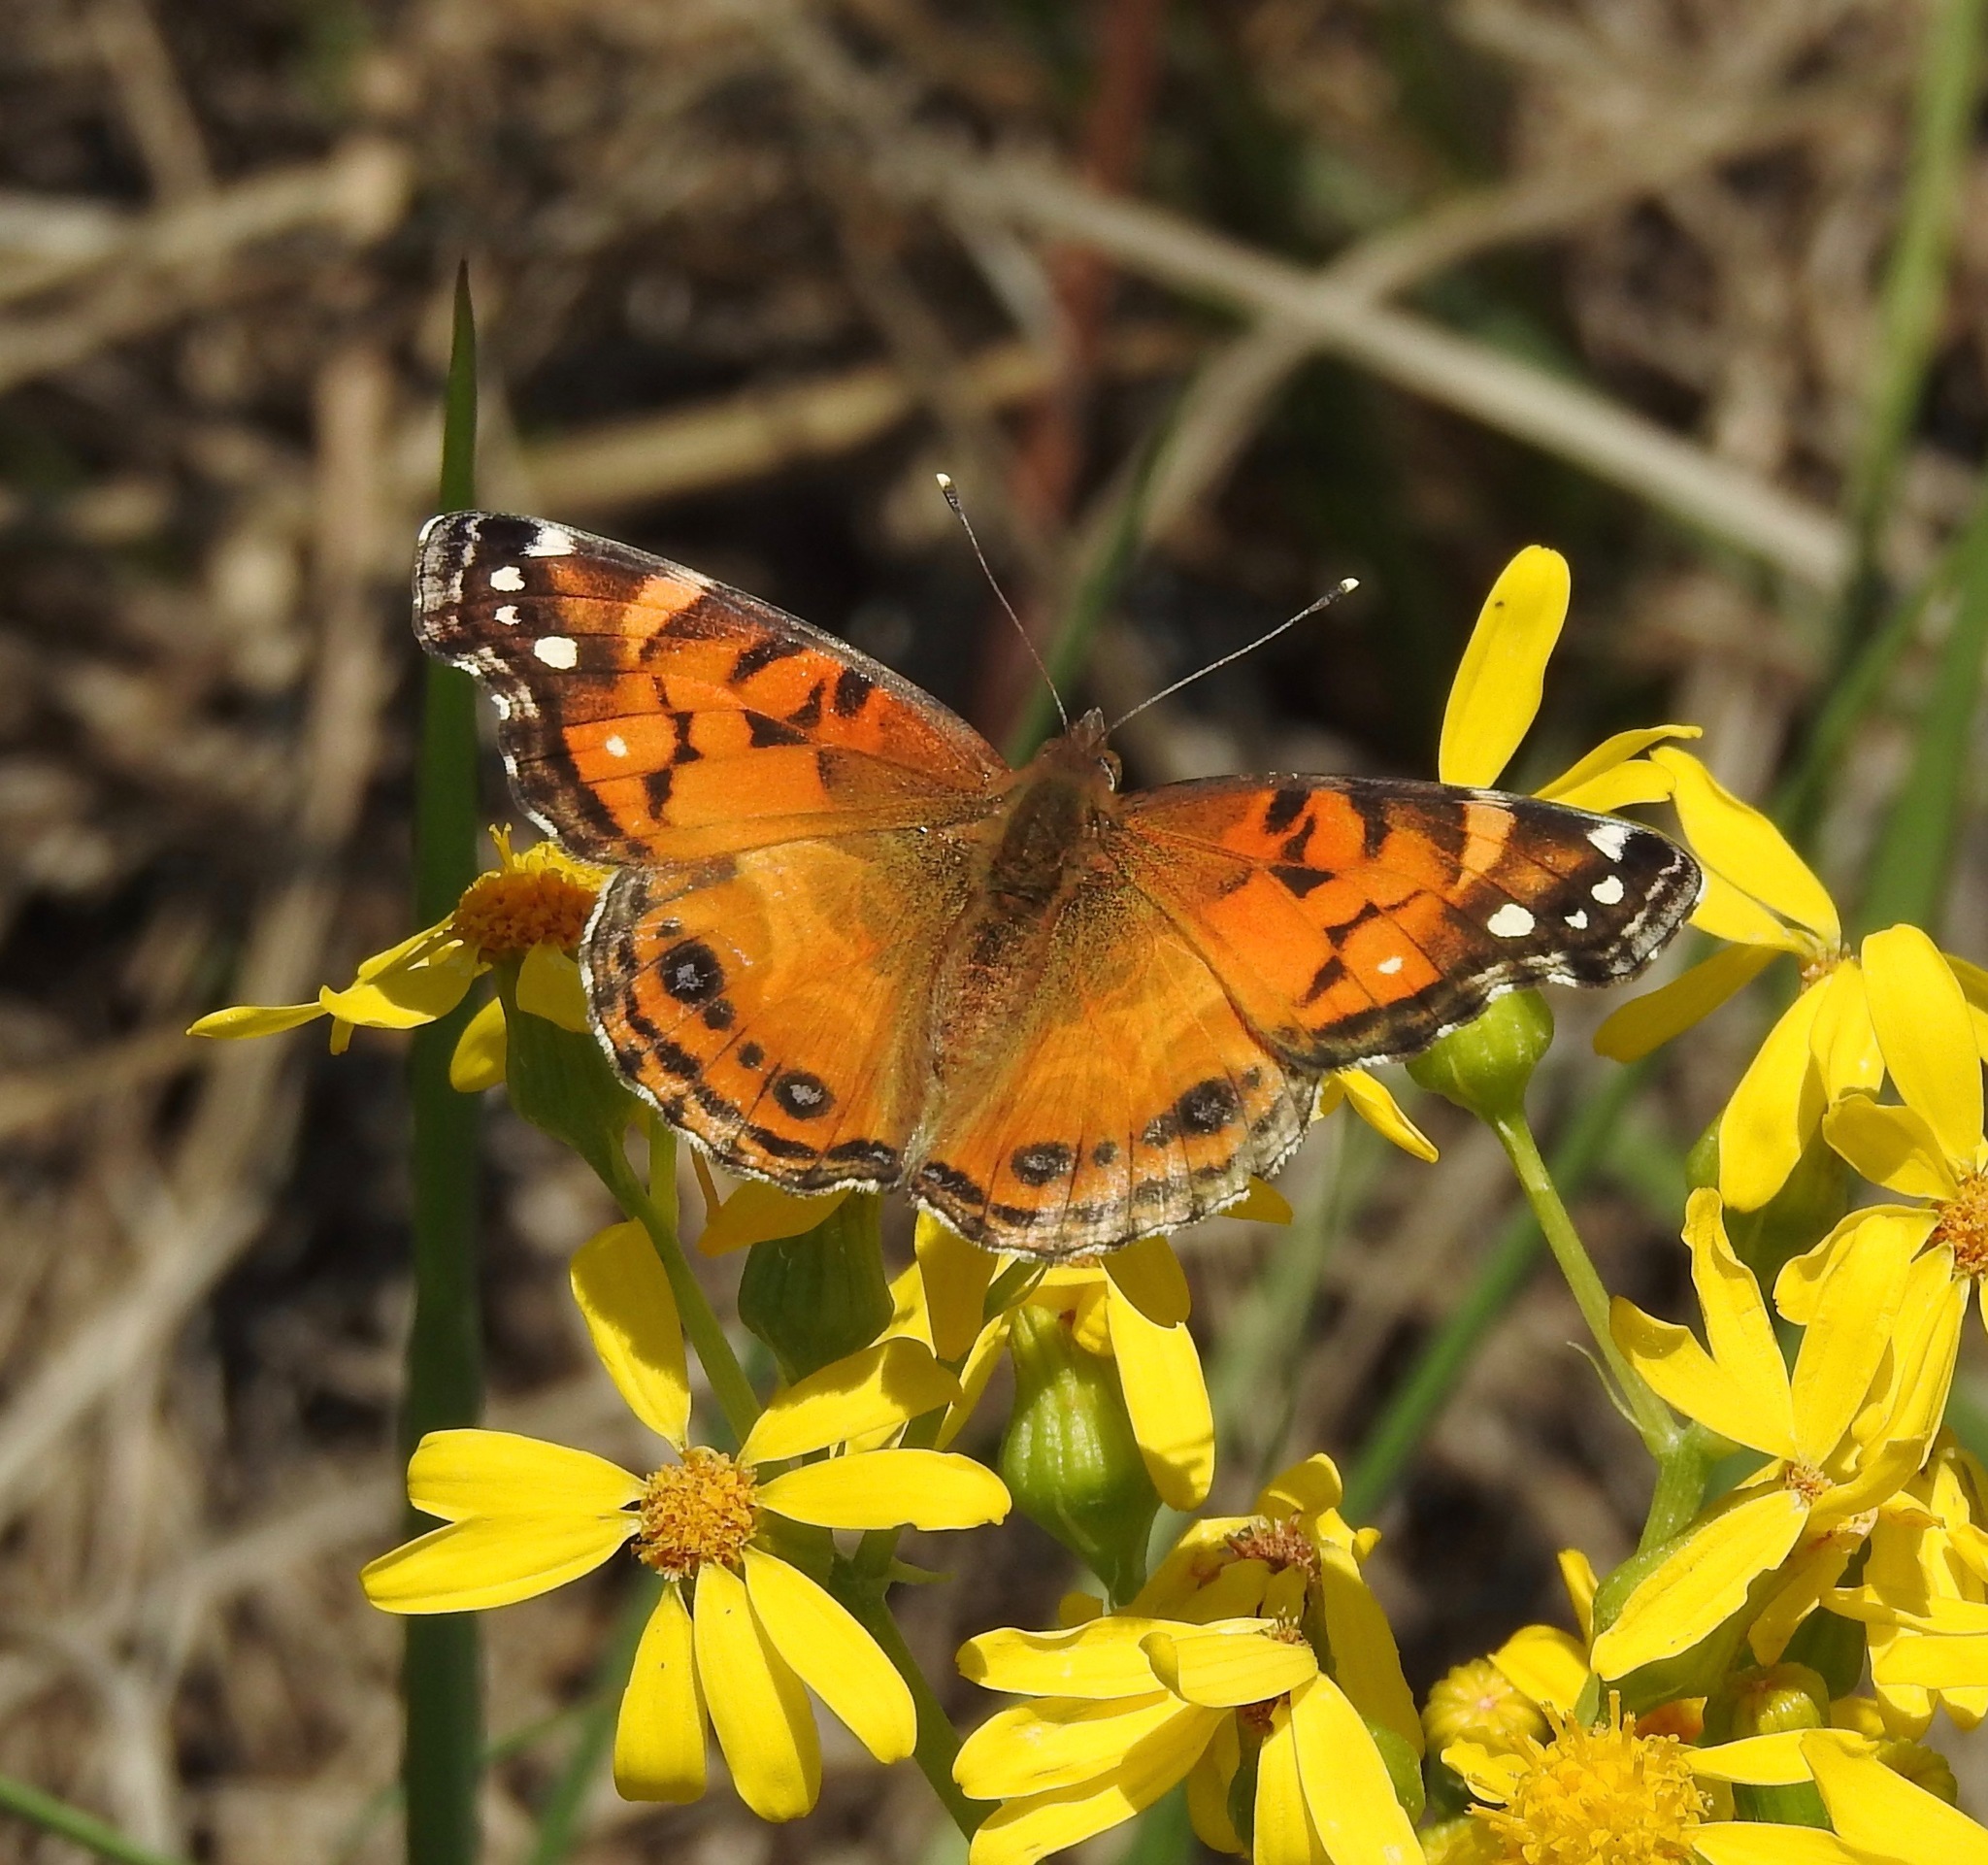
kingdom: Animalia
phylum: Arthropoda
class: Insecta
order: Lepidoptera
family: Nymphalidae
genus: Vanessa
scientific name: Vanessa virginiensis
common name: American lady
